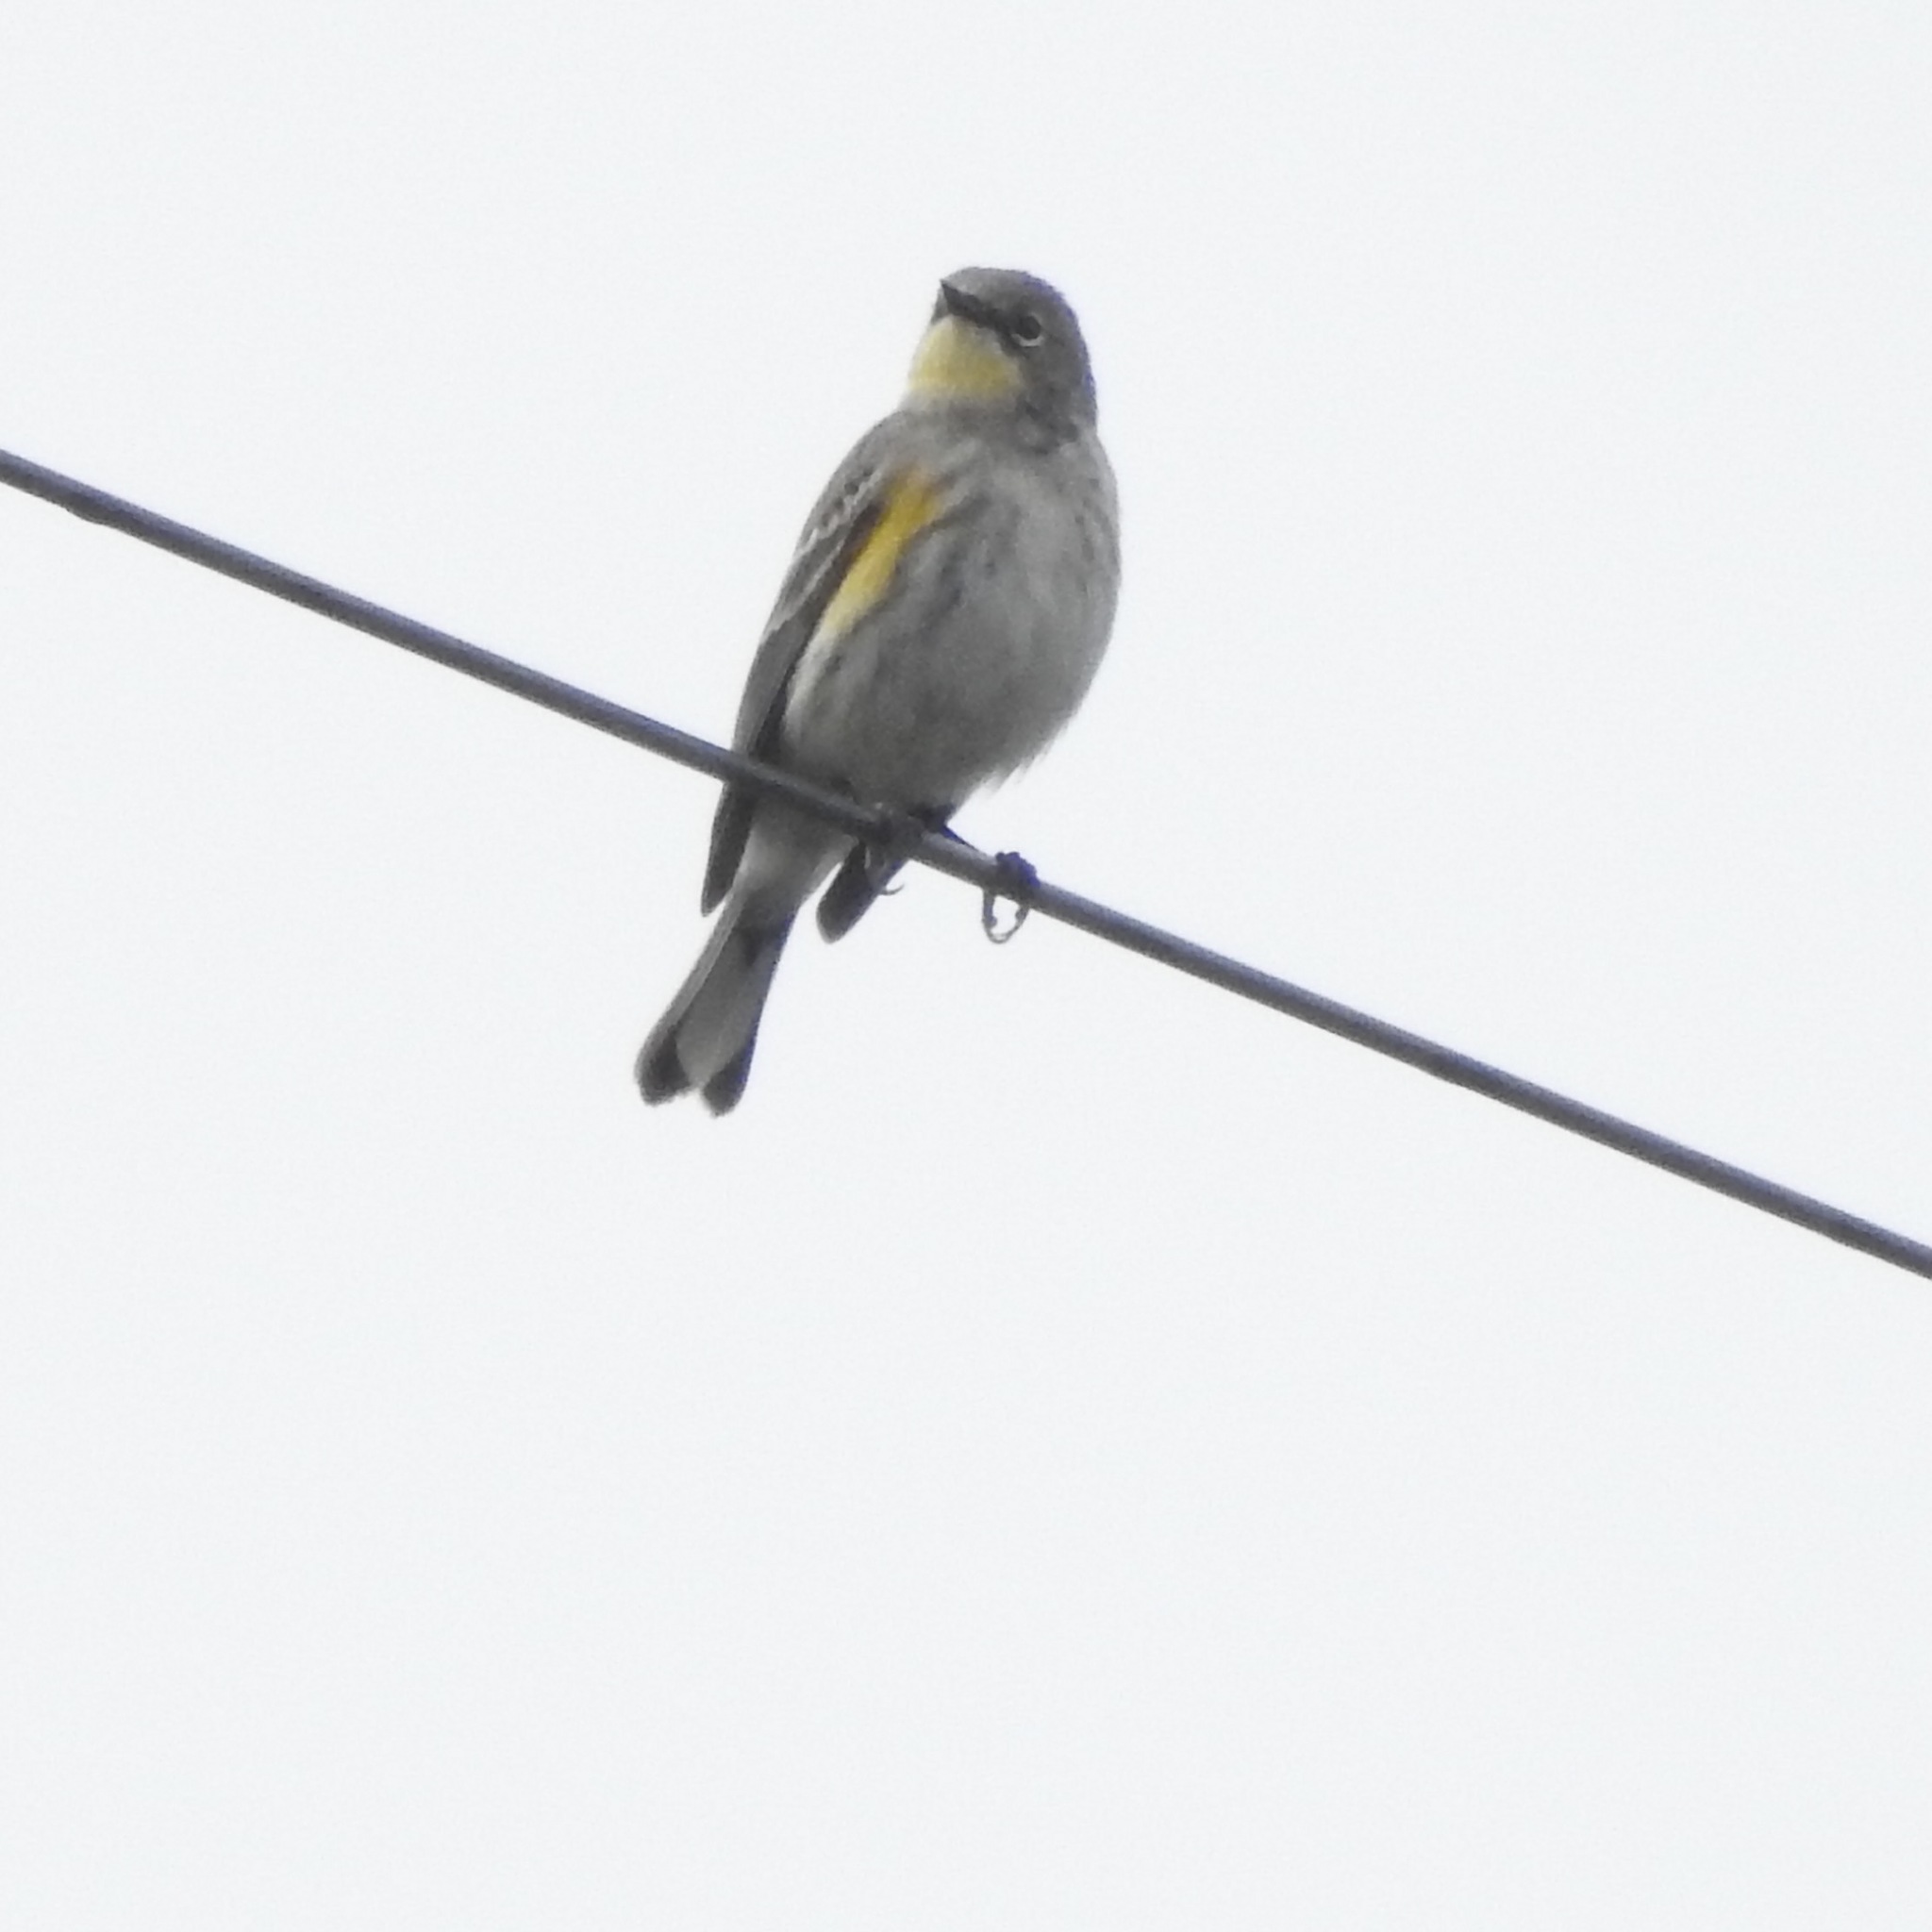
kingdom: Animalia
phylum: Chordata
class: Aves
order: Passeriformes
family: Parulidae
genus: Setophaga
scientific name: Setophaga coronata
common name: Myrtle warbler
